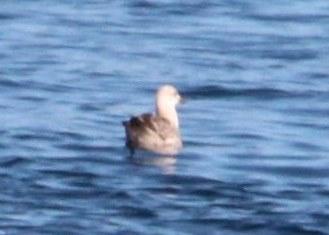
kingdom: Animalia
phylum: Chordata
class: Aves
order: Charadriiformes
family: Laridae
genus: Larus
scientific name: Larus dominicanus
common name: Kelp gull
